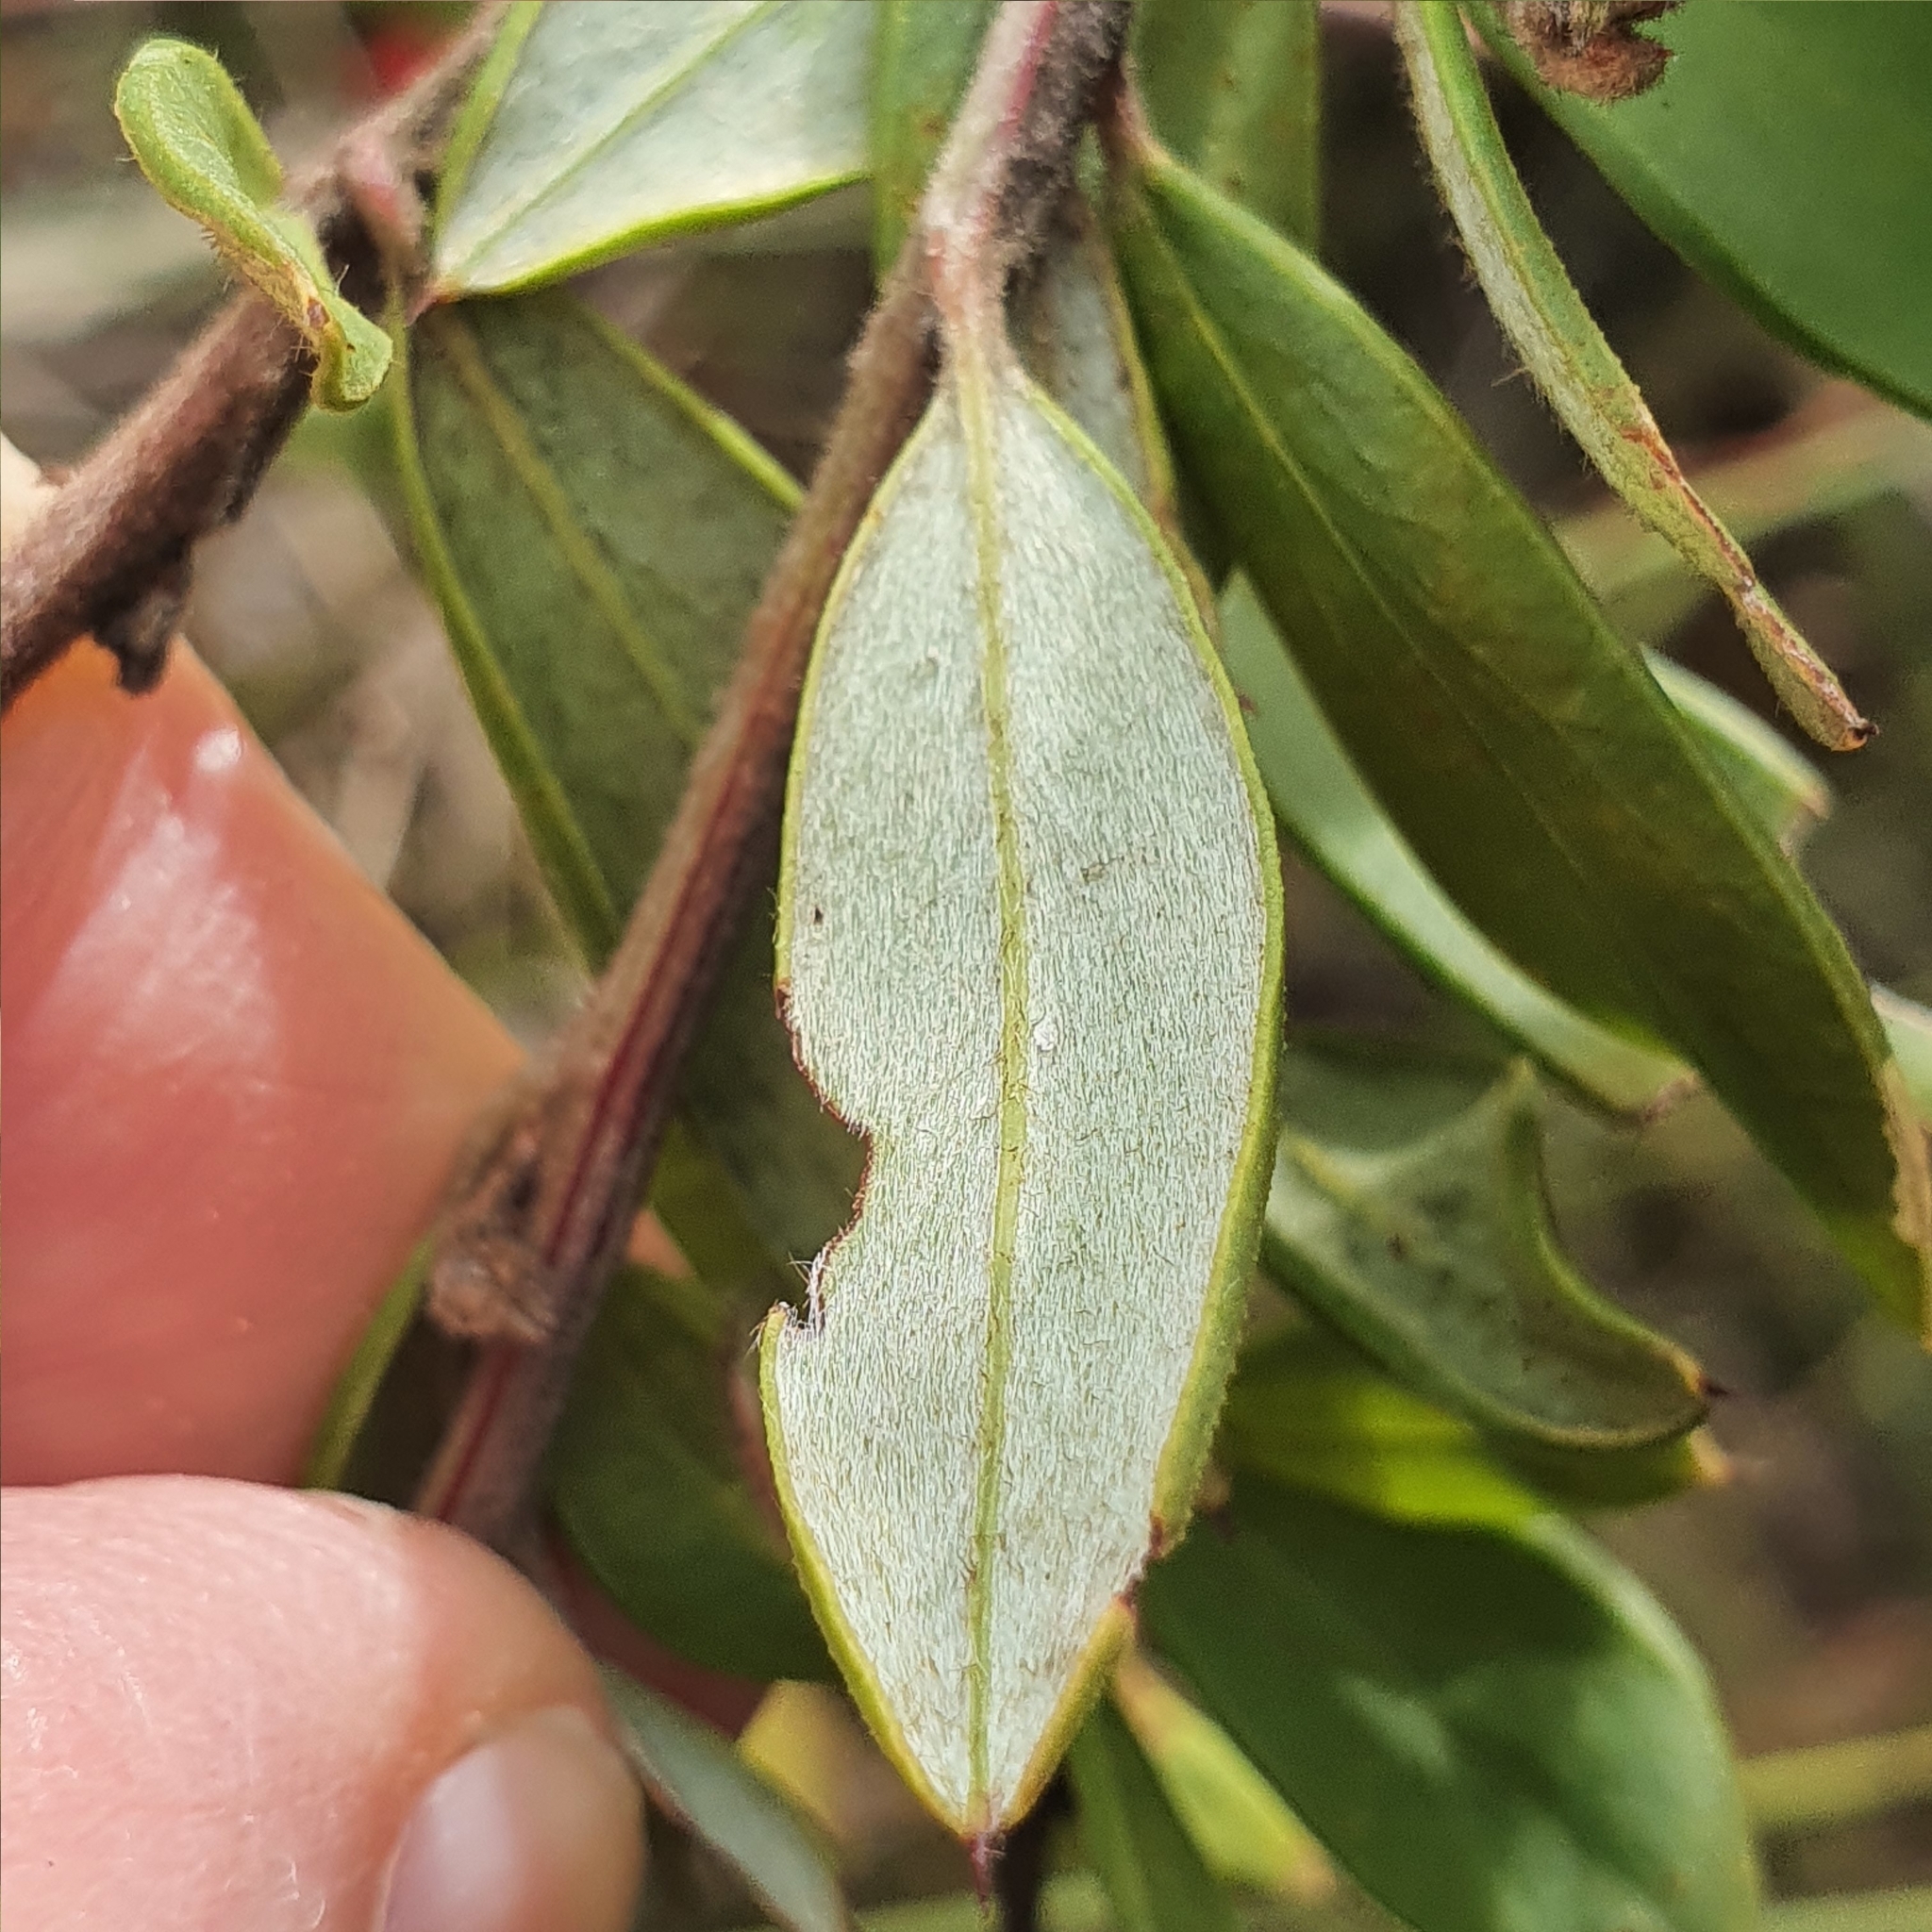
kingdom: Plantae
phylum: Tracheophyta
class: Magnoliopsida
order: Proteales
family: Proteaceae
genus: Grevillea
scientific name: Grevillea speciosa
